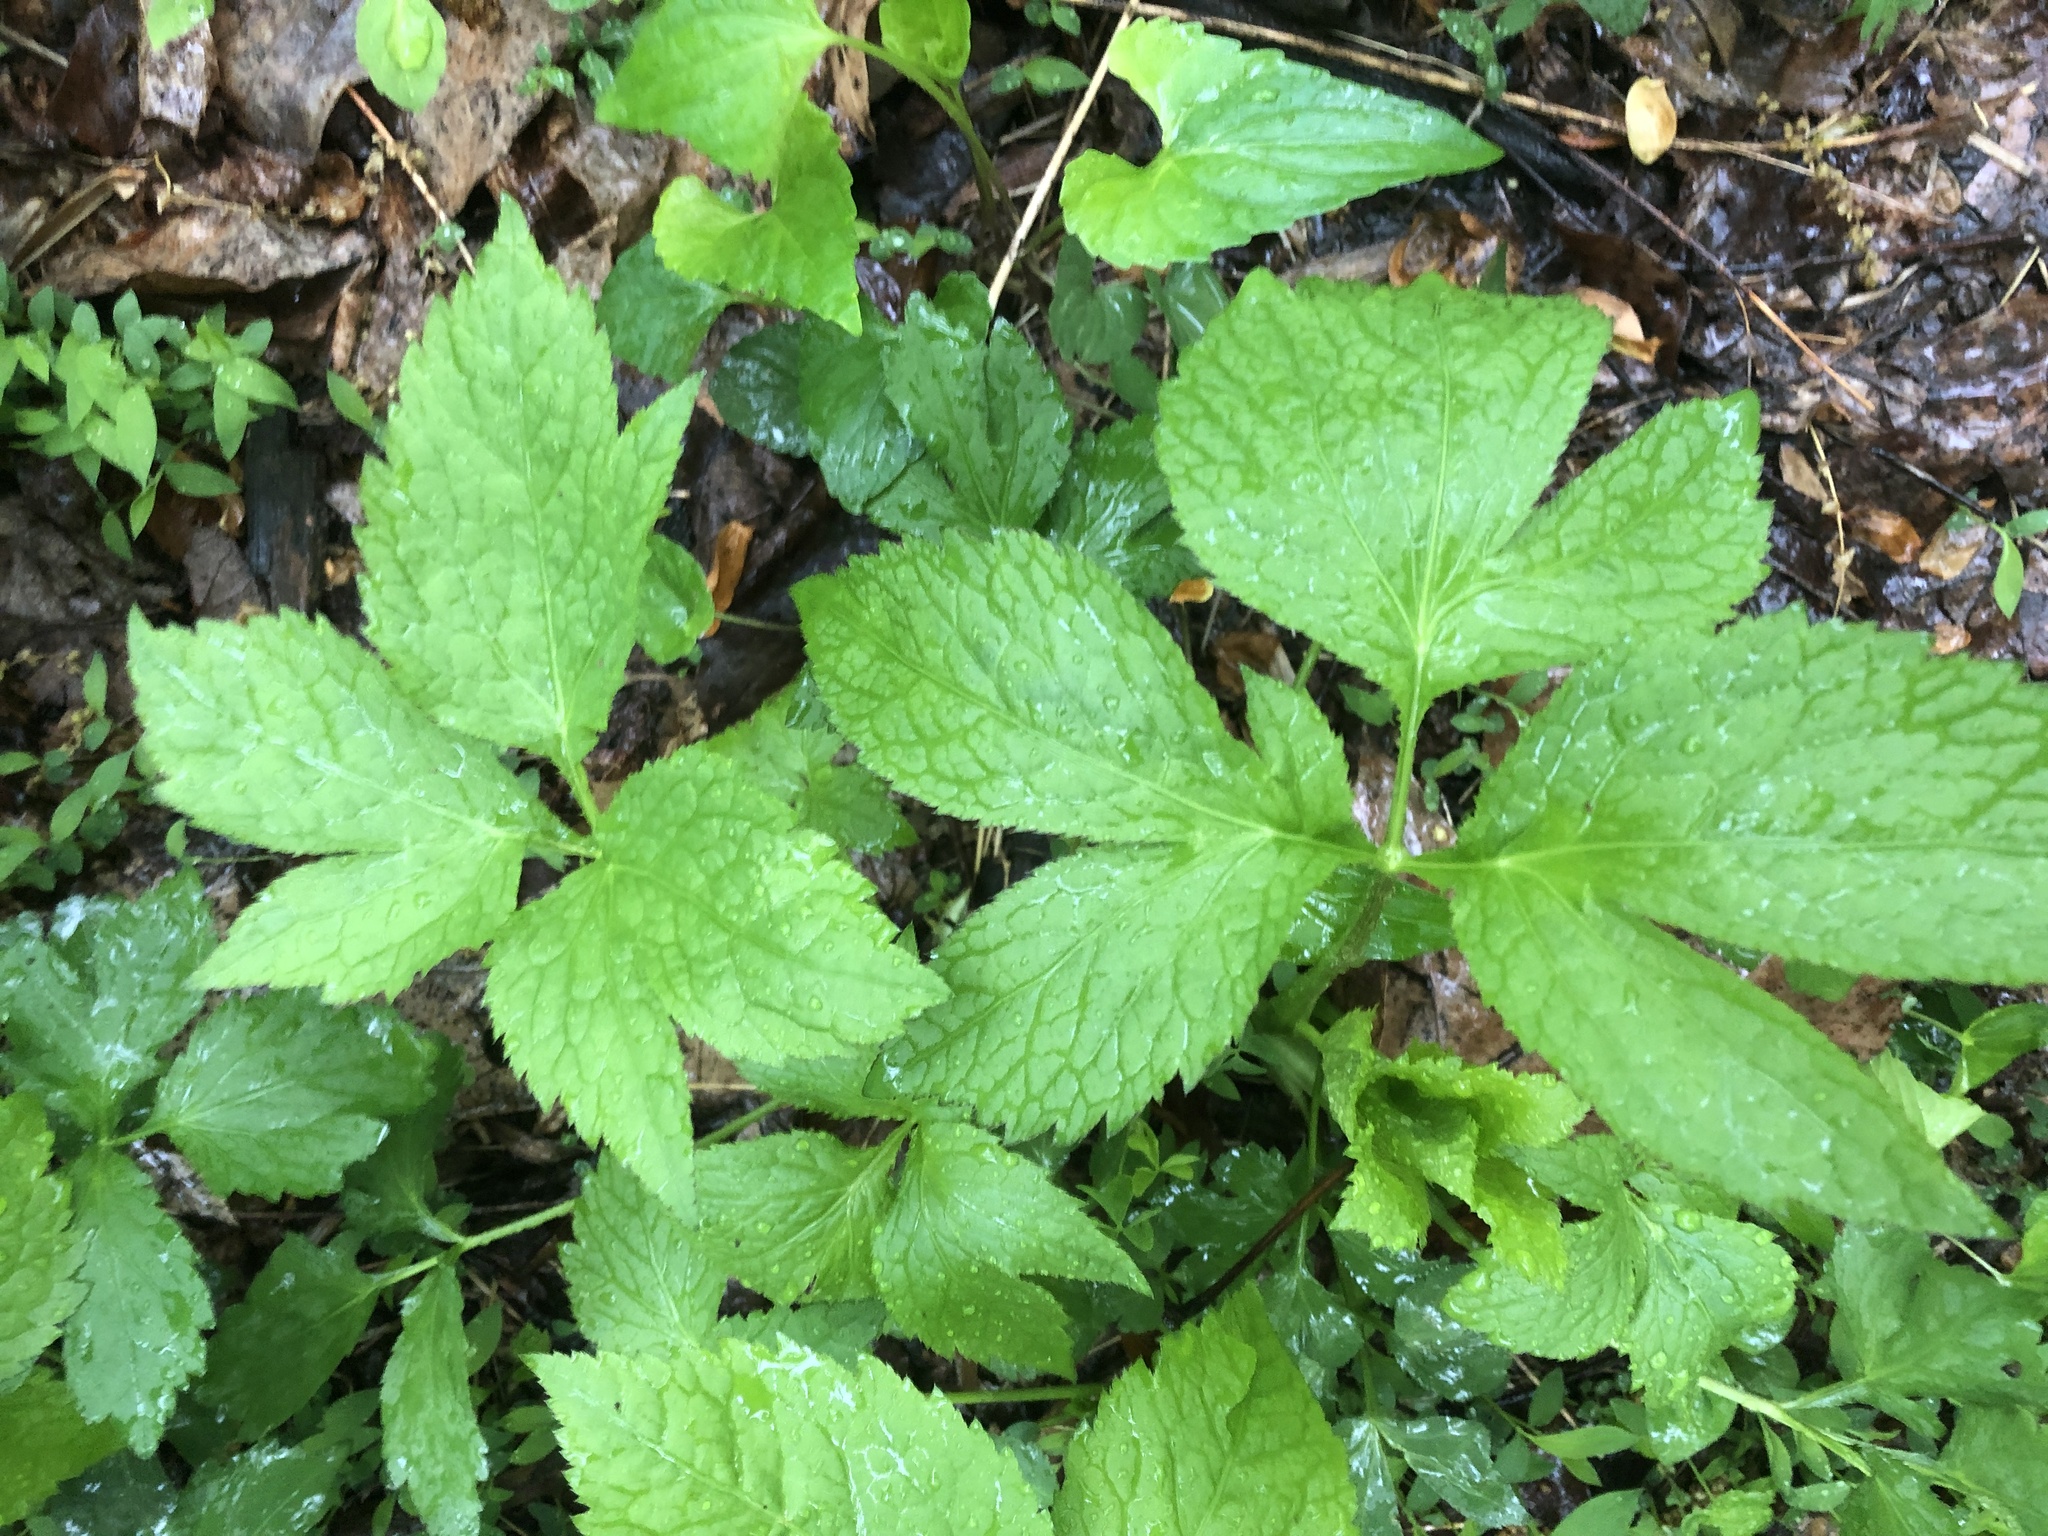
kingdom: Plantae
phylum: Tracheophyta
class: Magnoliopsida
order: Apiales
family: Apiaceae
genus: Cryptotaenia
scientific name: Cryptotaenia canadensis
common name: Honewort
